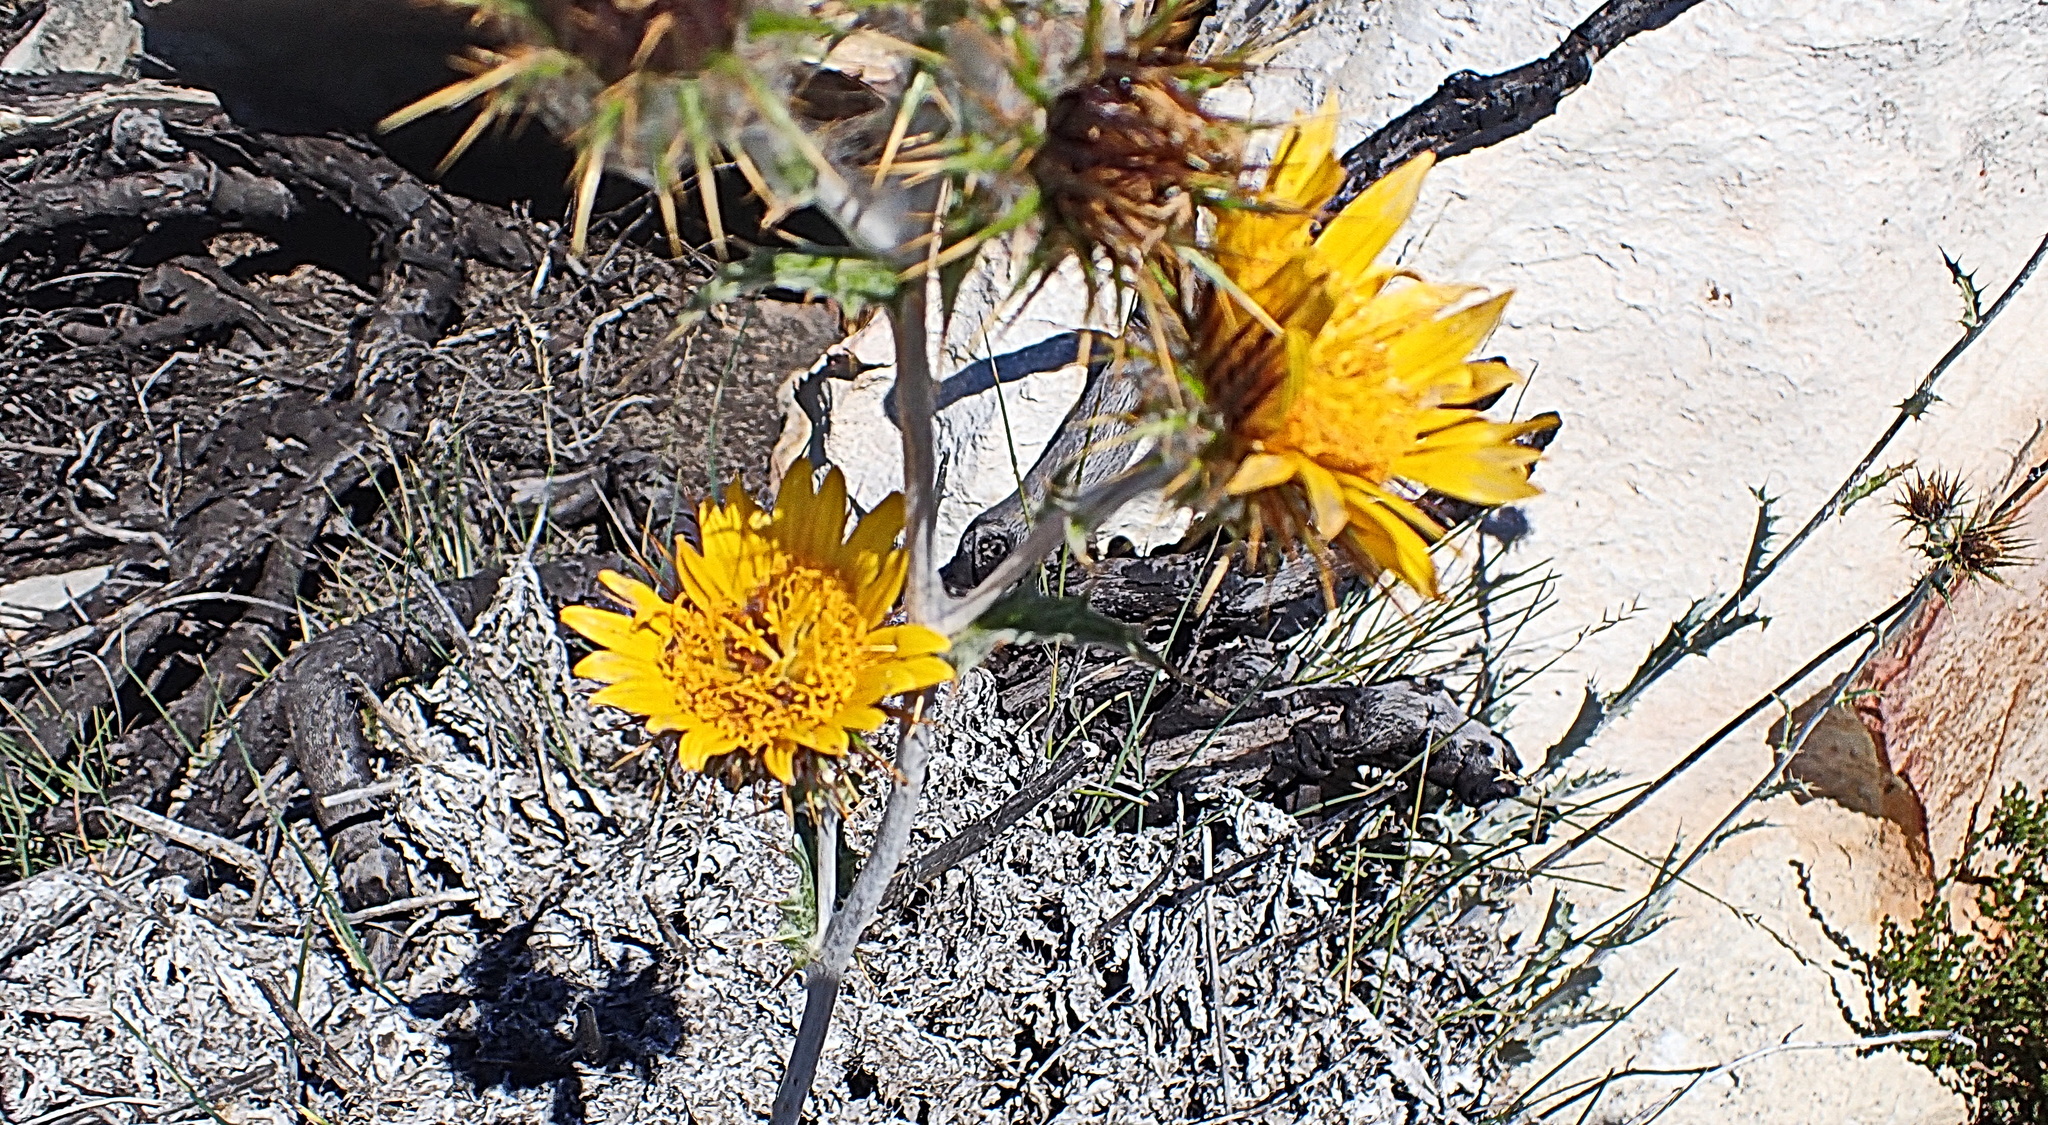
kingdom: Plantae
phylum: Tracheophyta
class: Magnoliopsida
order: Asterales
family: Asteraceae
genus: Berkheya
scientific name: Berkheya francisci
